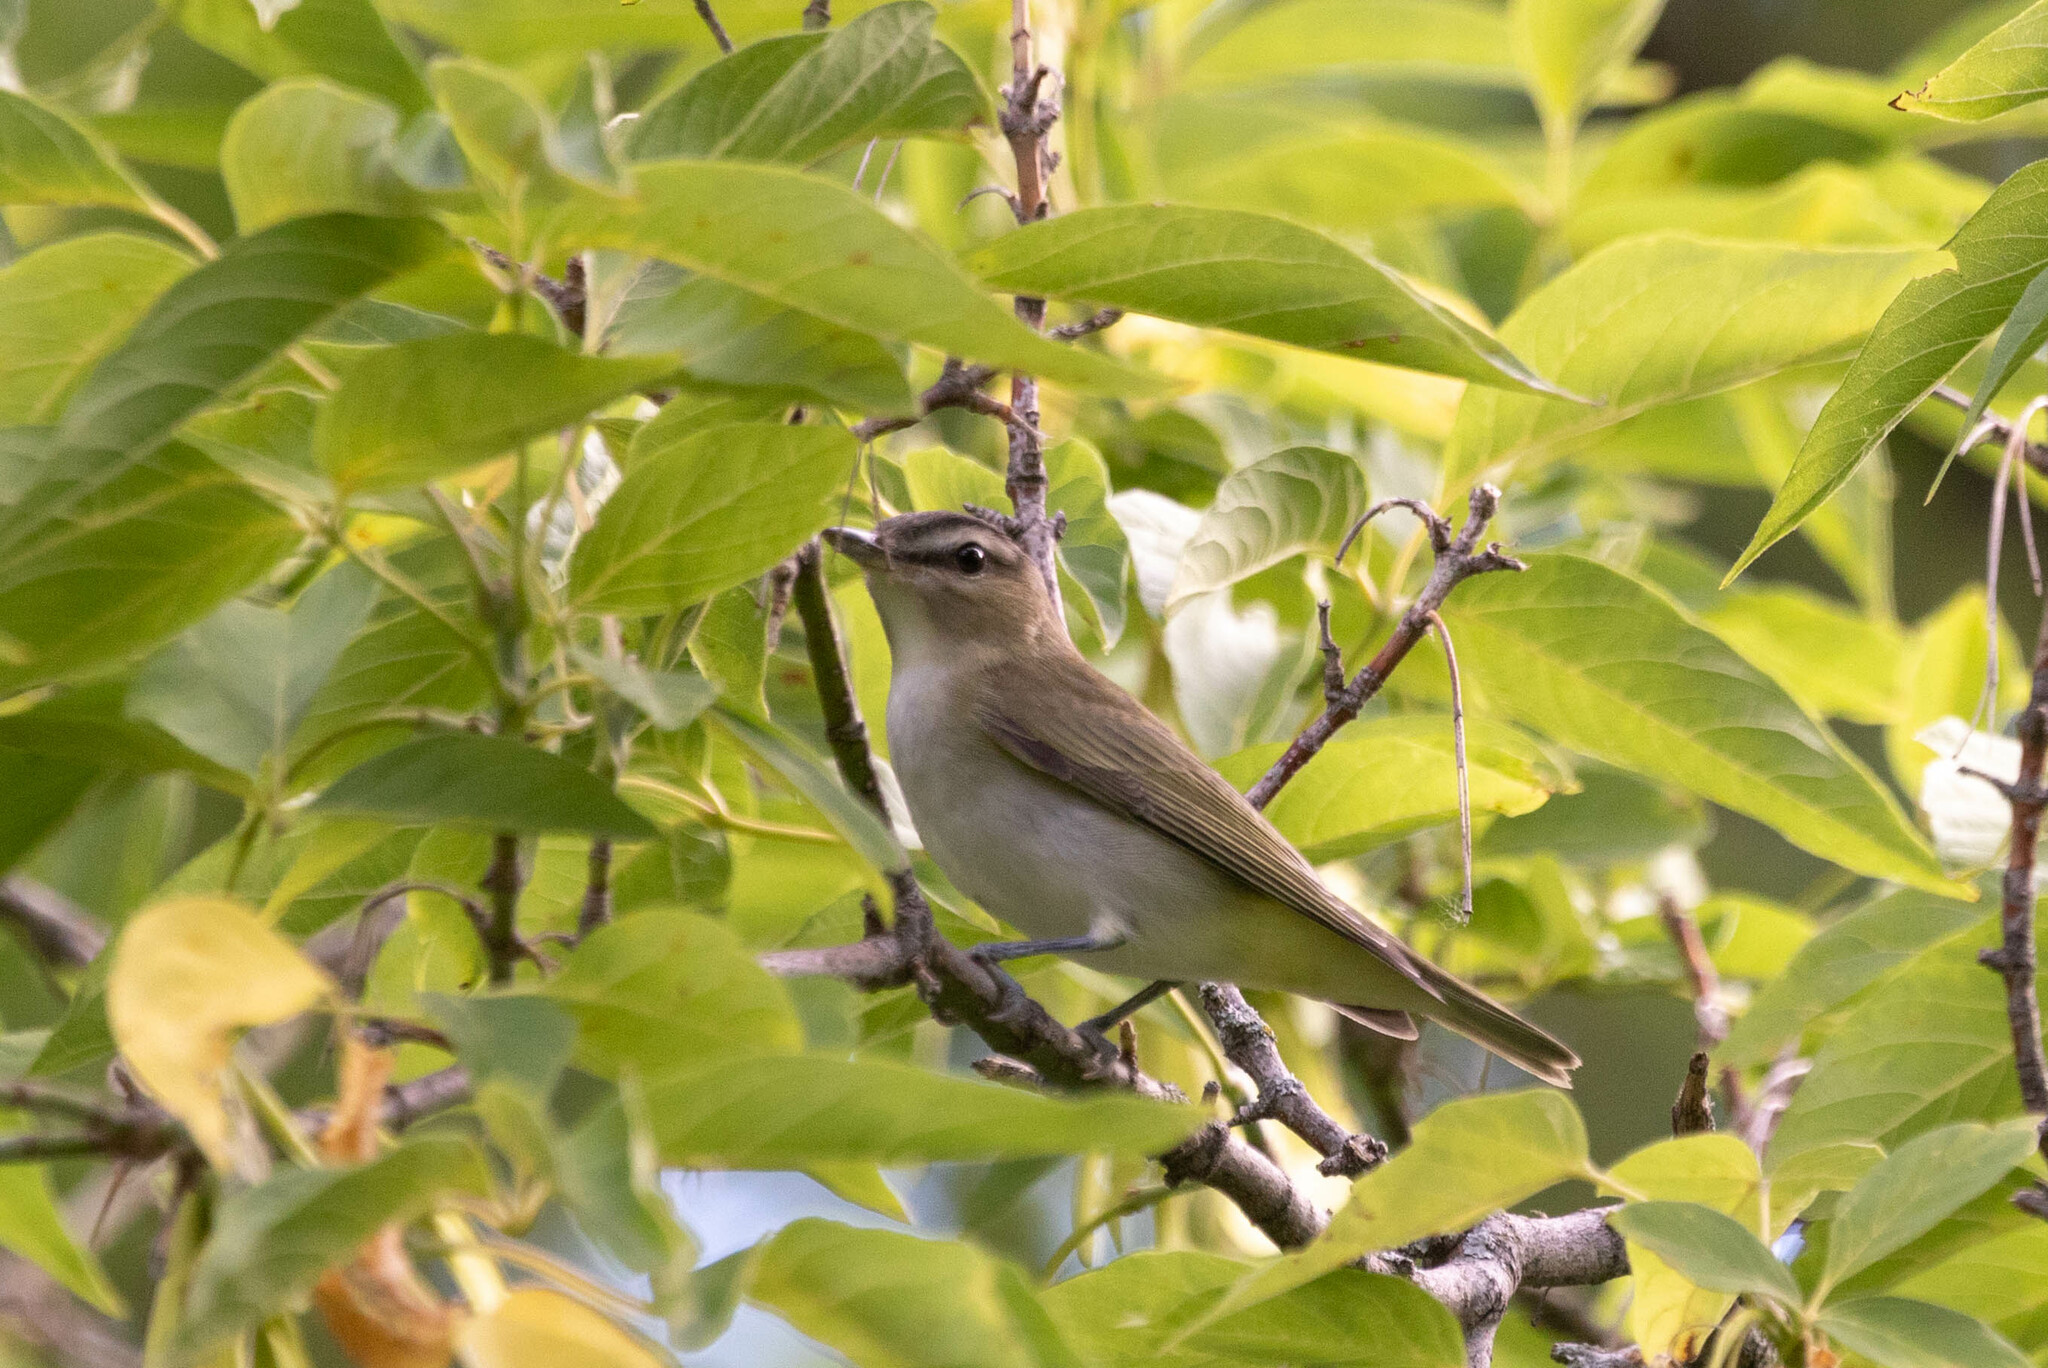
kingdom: Animalia
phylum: Chordata
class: Aves
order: Passeriformes
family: Vireonidae
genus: Vireo
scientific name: Vireo olivaceus
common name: Red-eyed vireo
